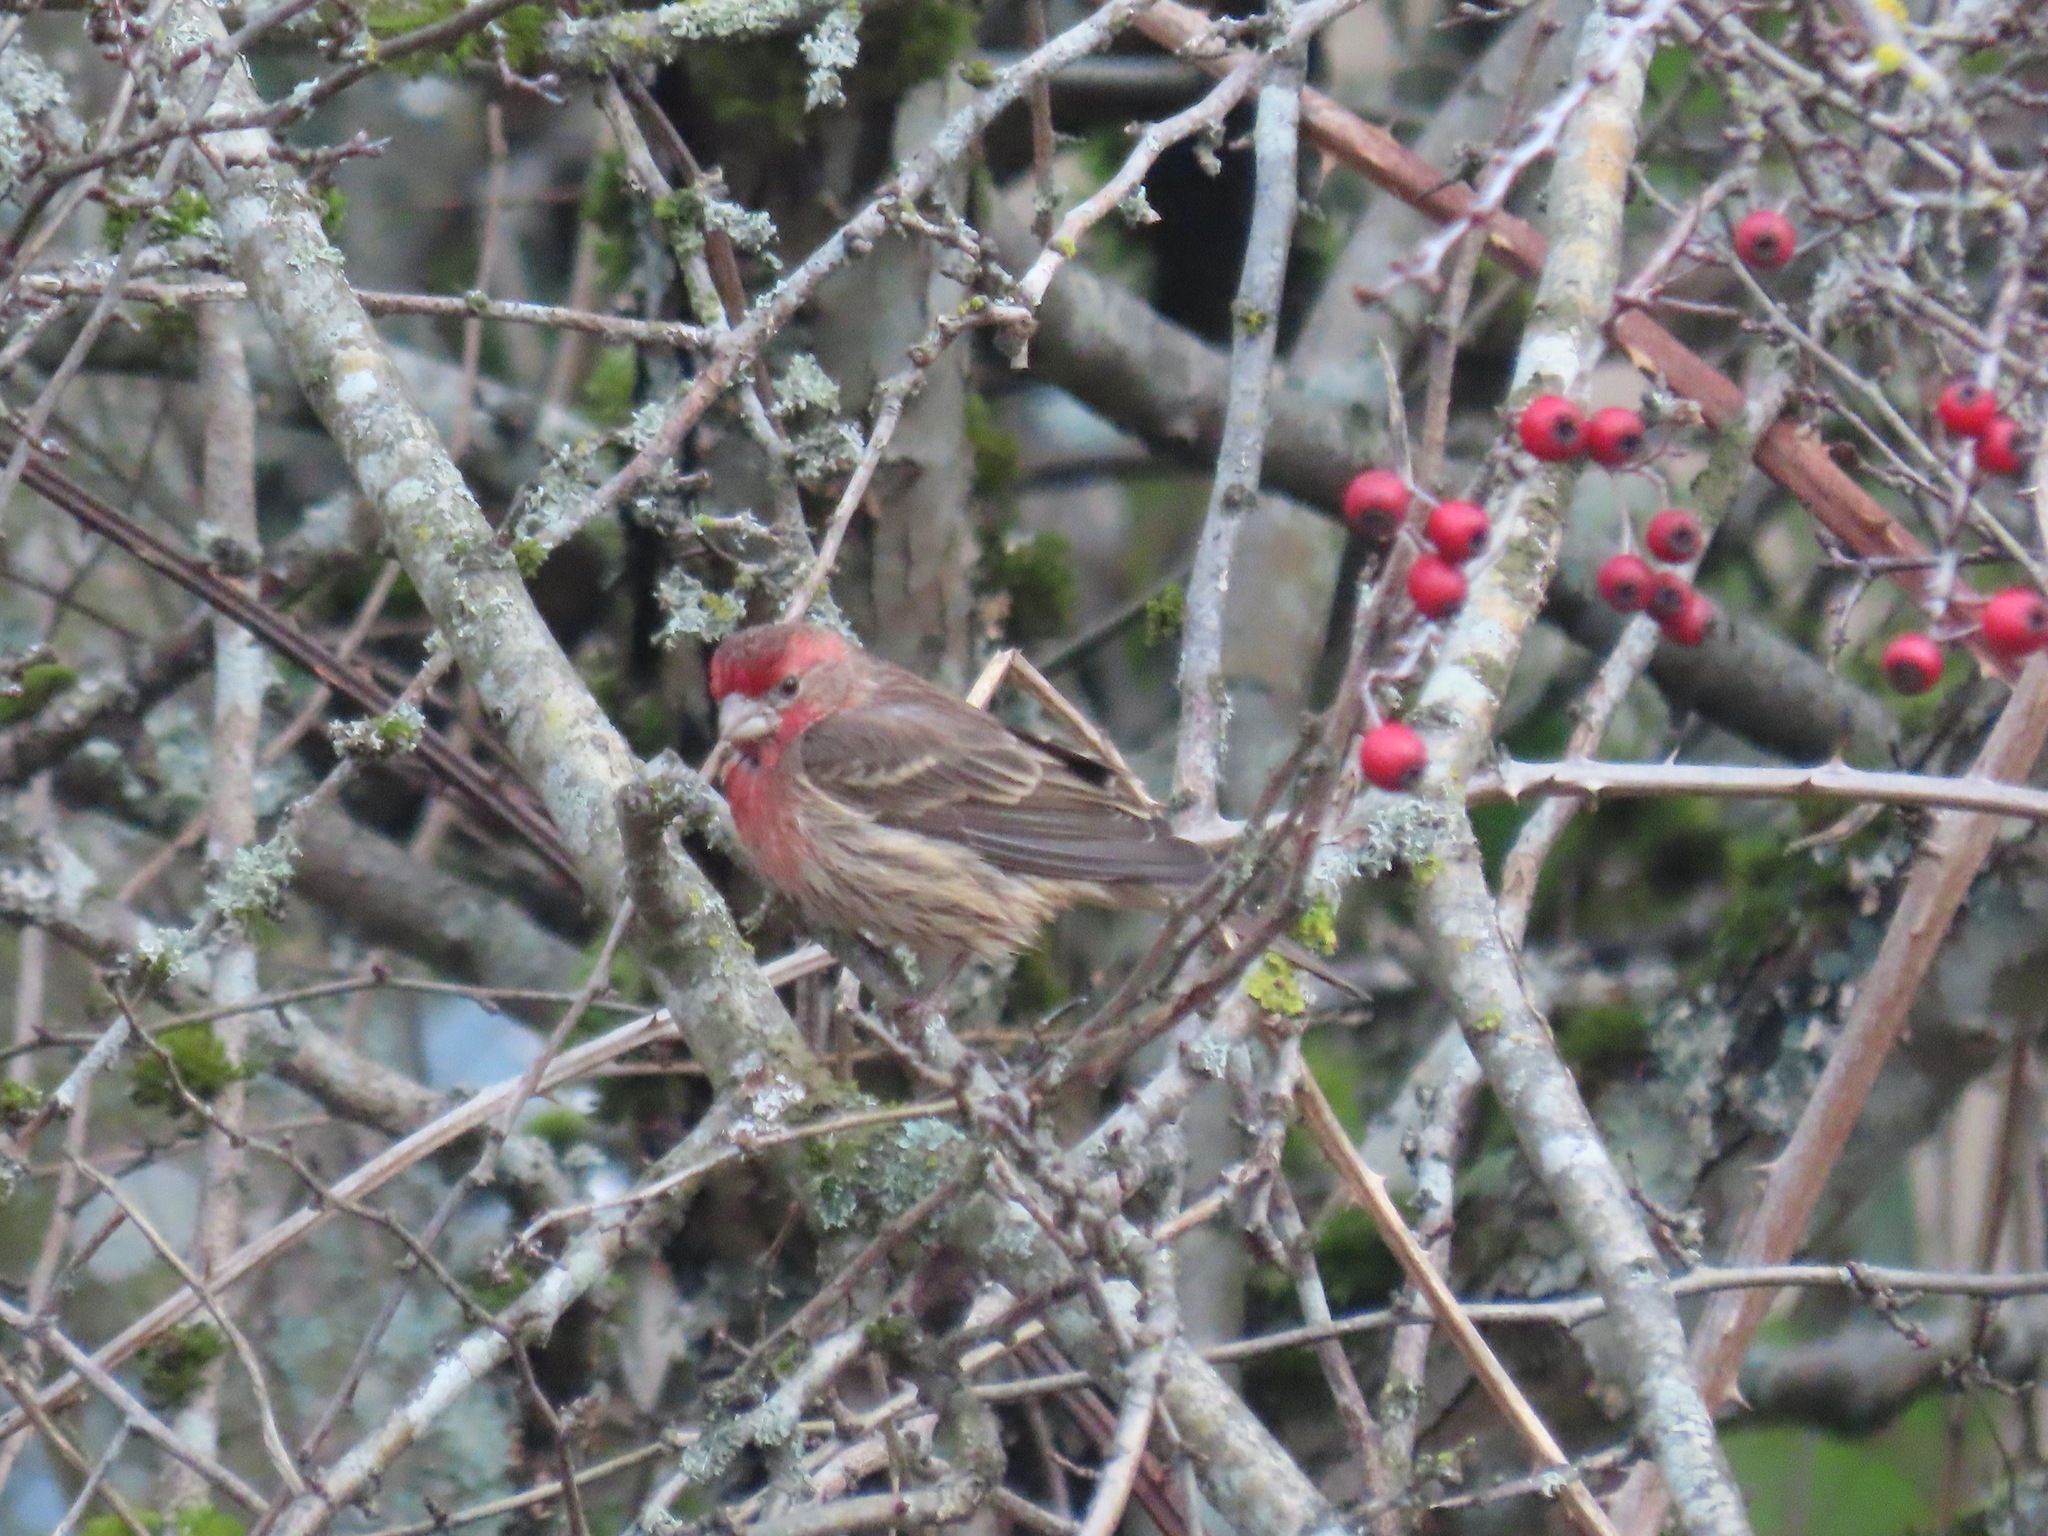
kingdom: Animalia
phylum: Chordata
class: Aves
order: Passeriformes
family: Fringillidae
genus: Haemorhous
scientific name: Haemorhous mexicanus
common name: House finch
